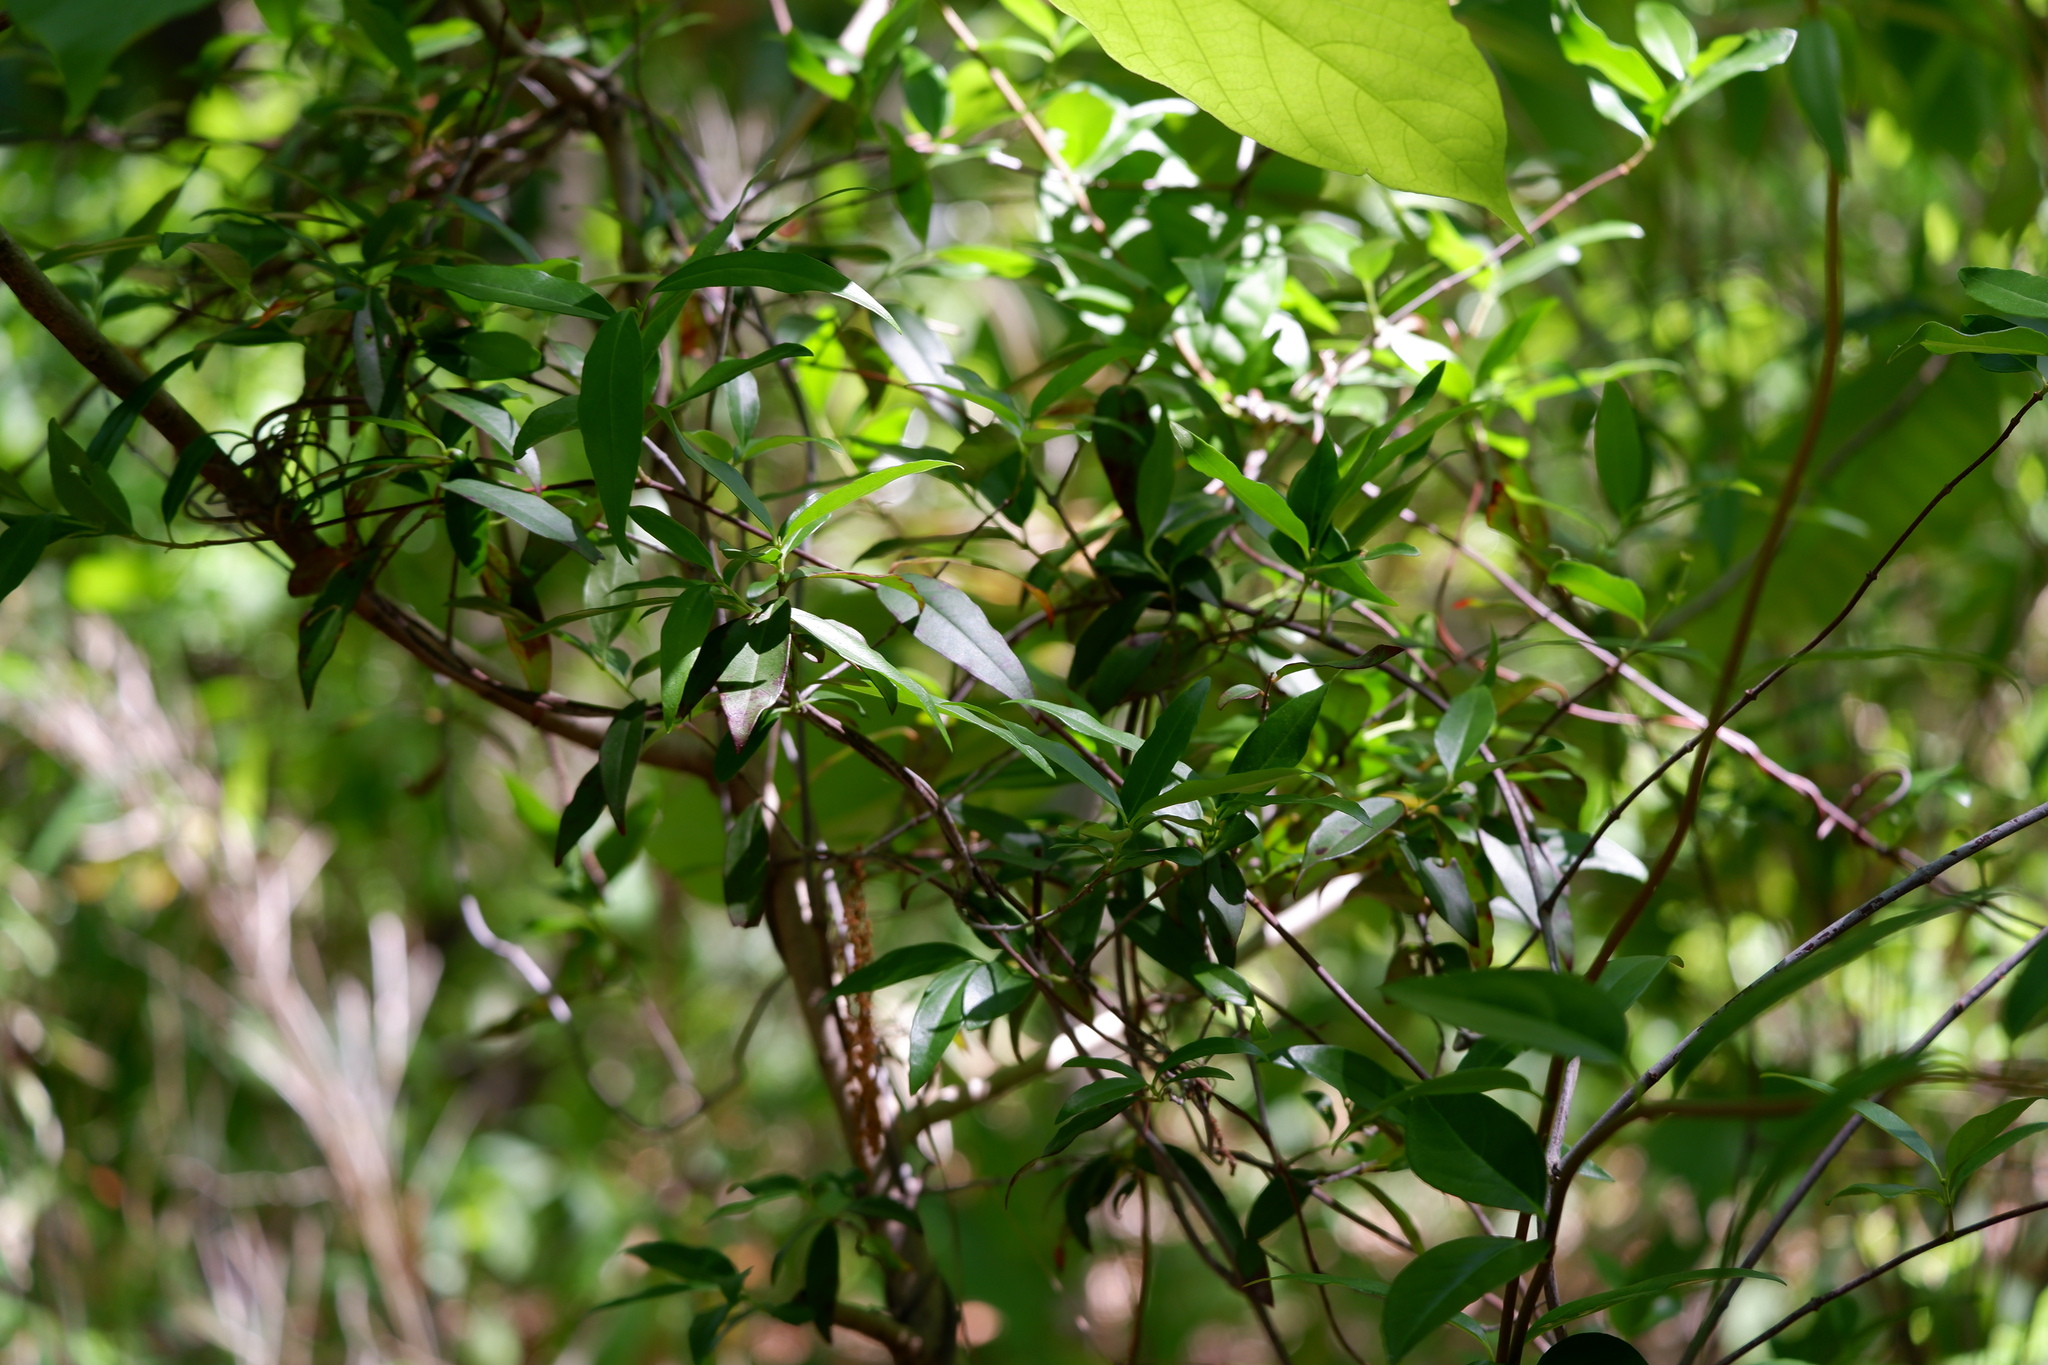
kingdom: Plantae
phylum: Tracheophyta
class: Magnoliopsida
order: Gentianales
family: Gelsemiaceae
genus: Gelsemium
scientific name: Gelsemium sempervirens
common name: Carolina-jasmine
